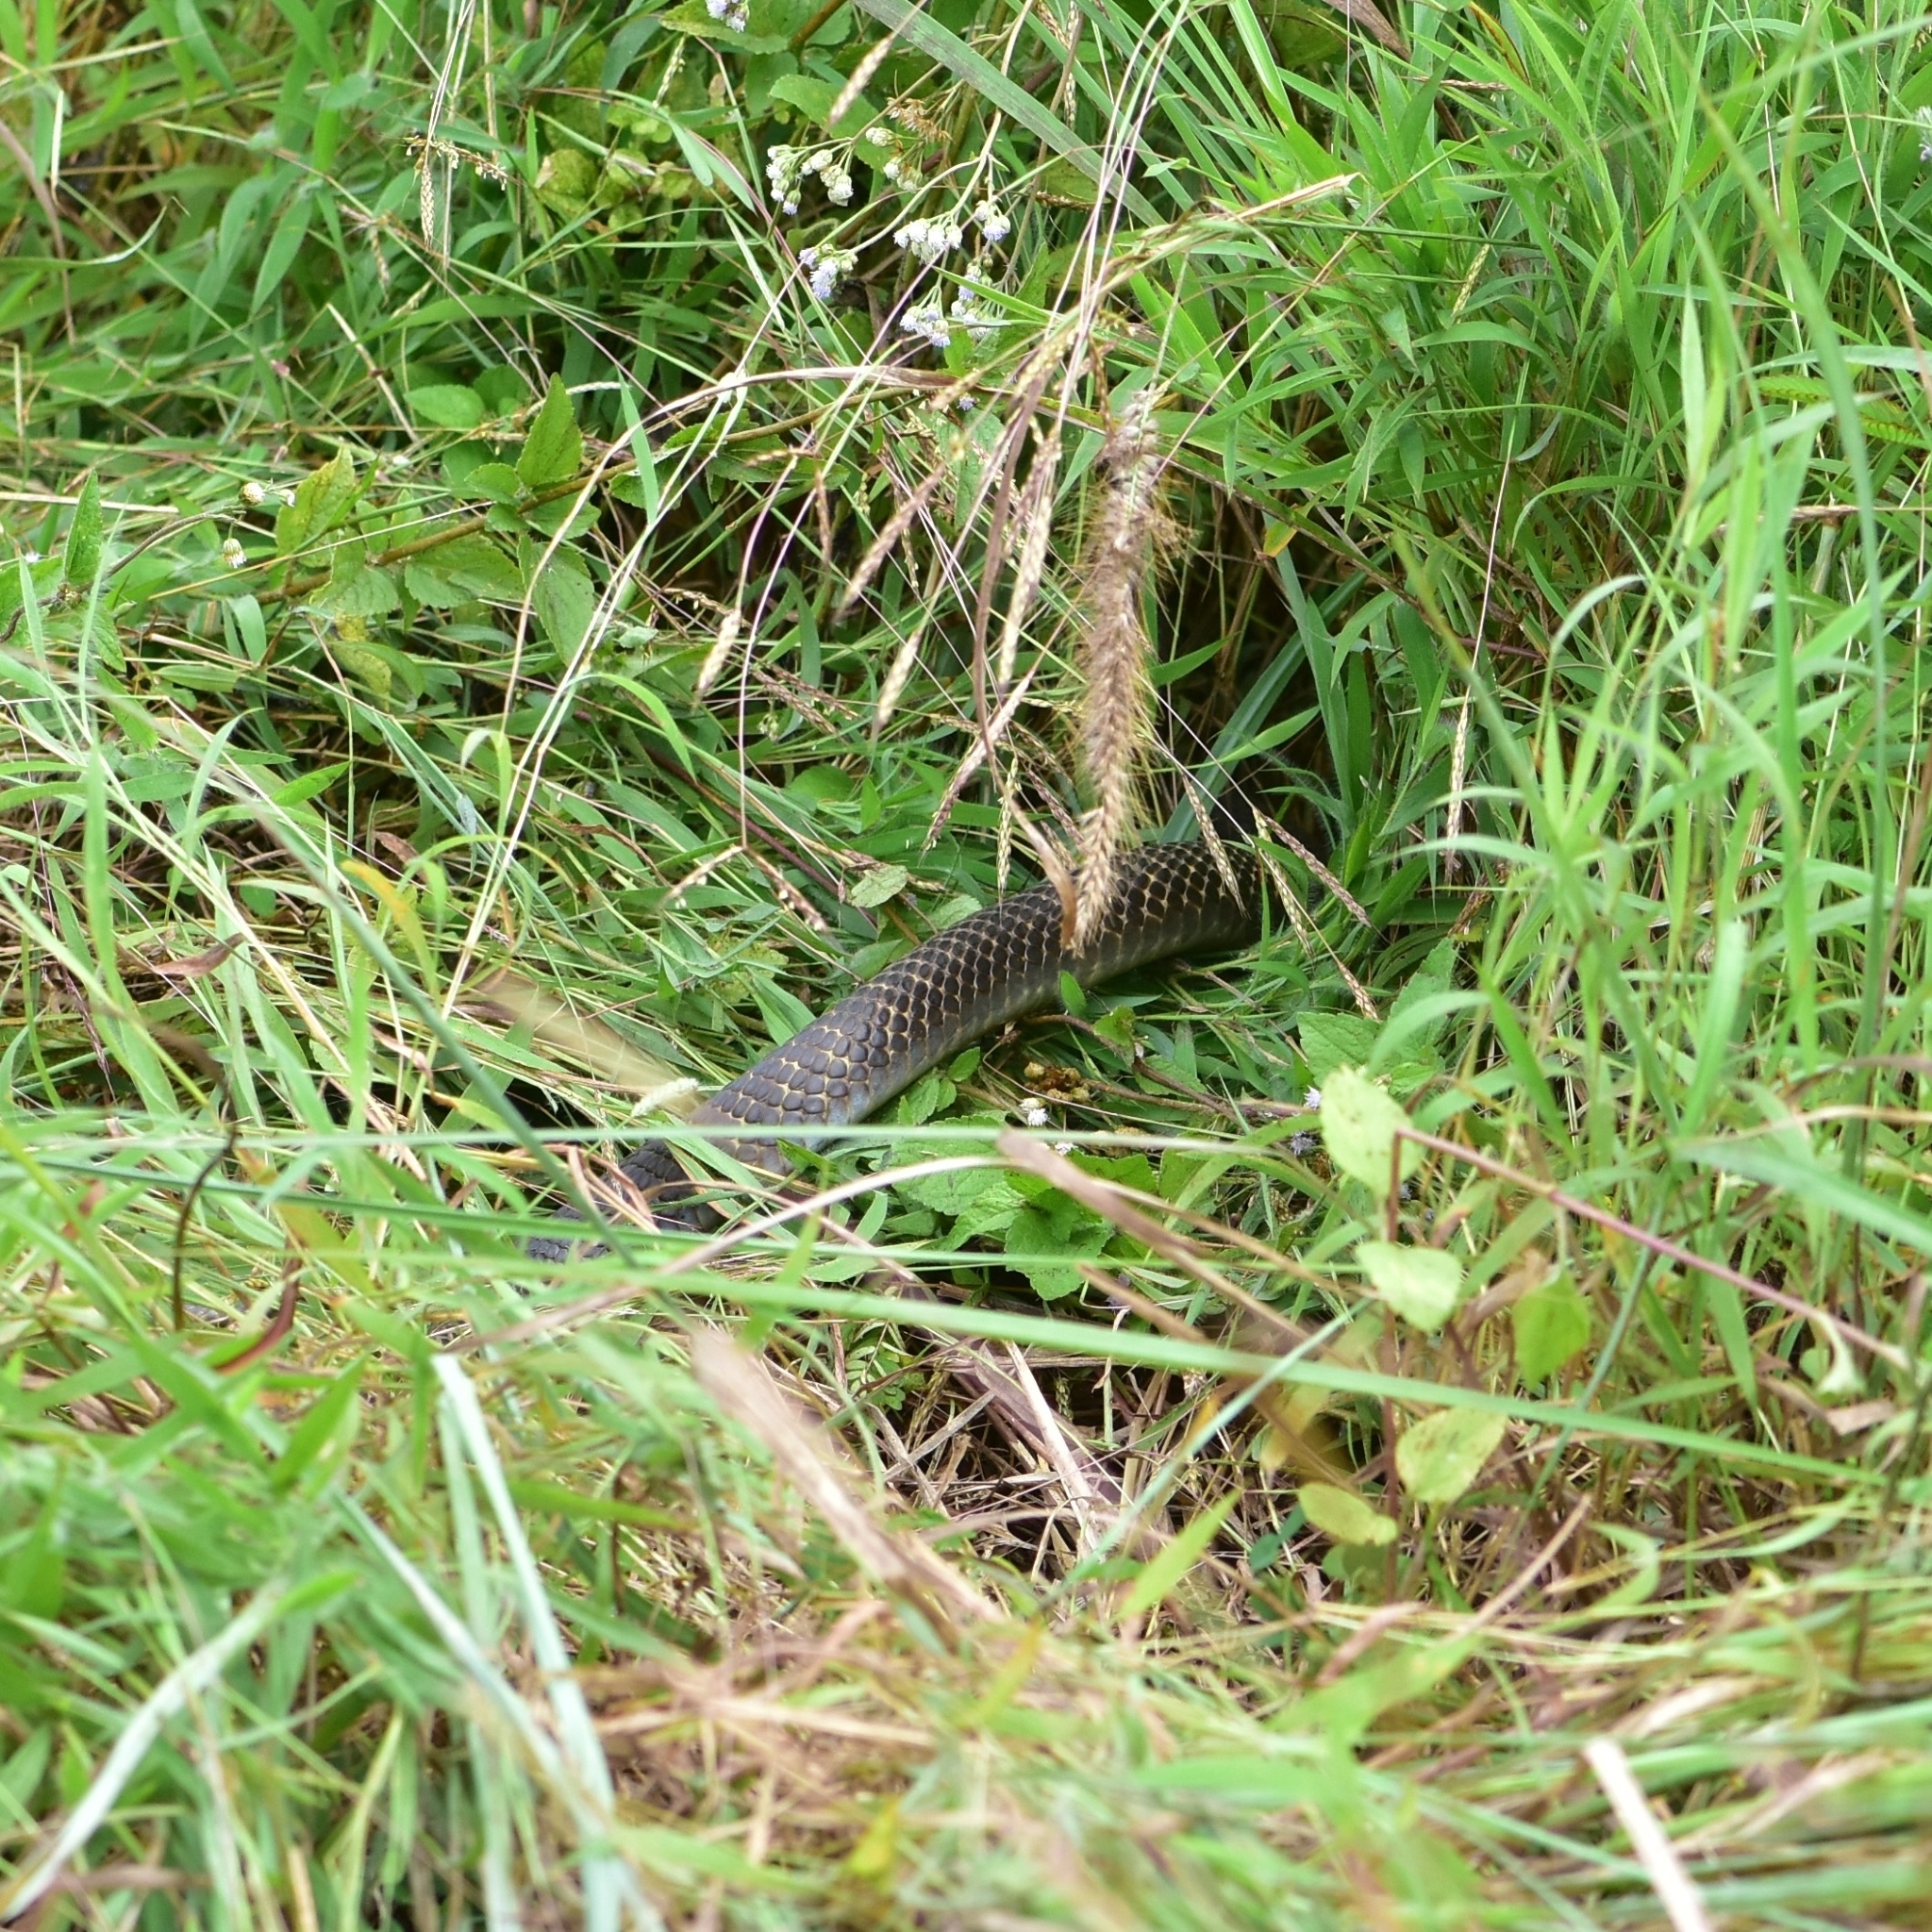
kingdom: Animalia
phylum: Chordata
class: Squamata
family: Elapidae
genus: Naja
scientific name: Naja naja
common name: Indian cobra
